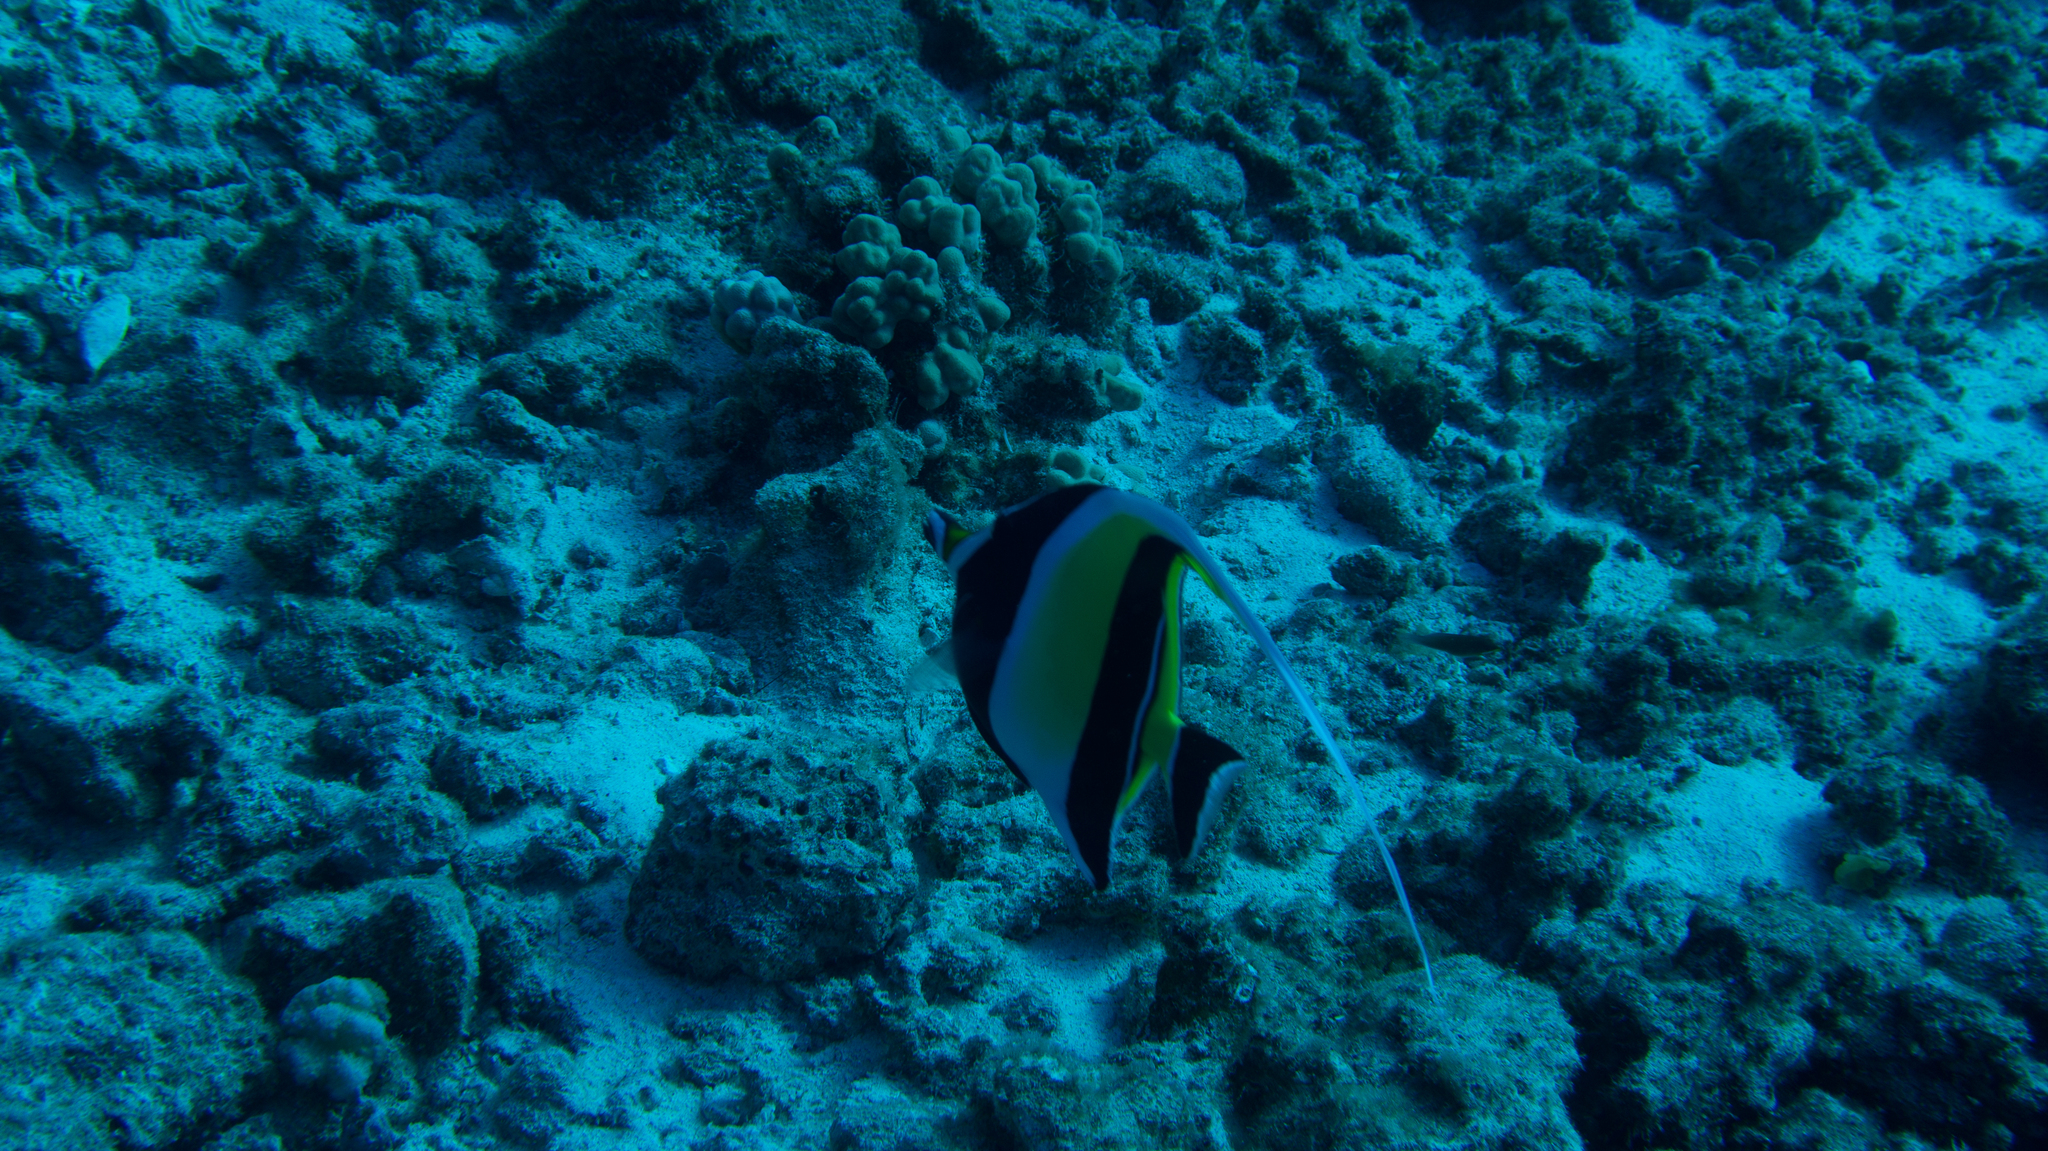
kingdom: Animalia
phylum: Chordata
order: Perciformes
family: Zanclidae
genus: Zanclus
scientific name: Zanclus cornutus
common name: Moorish idol
